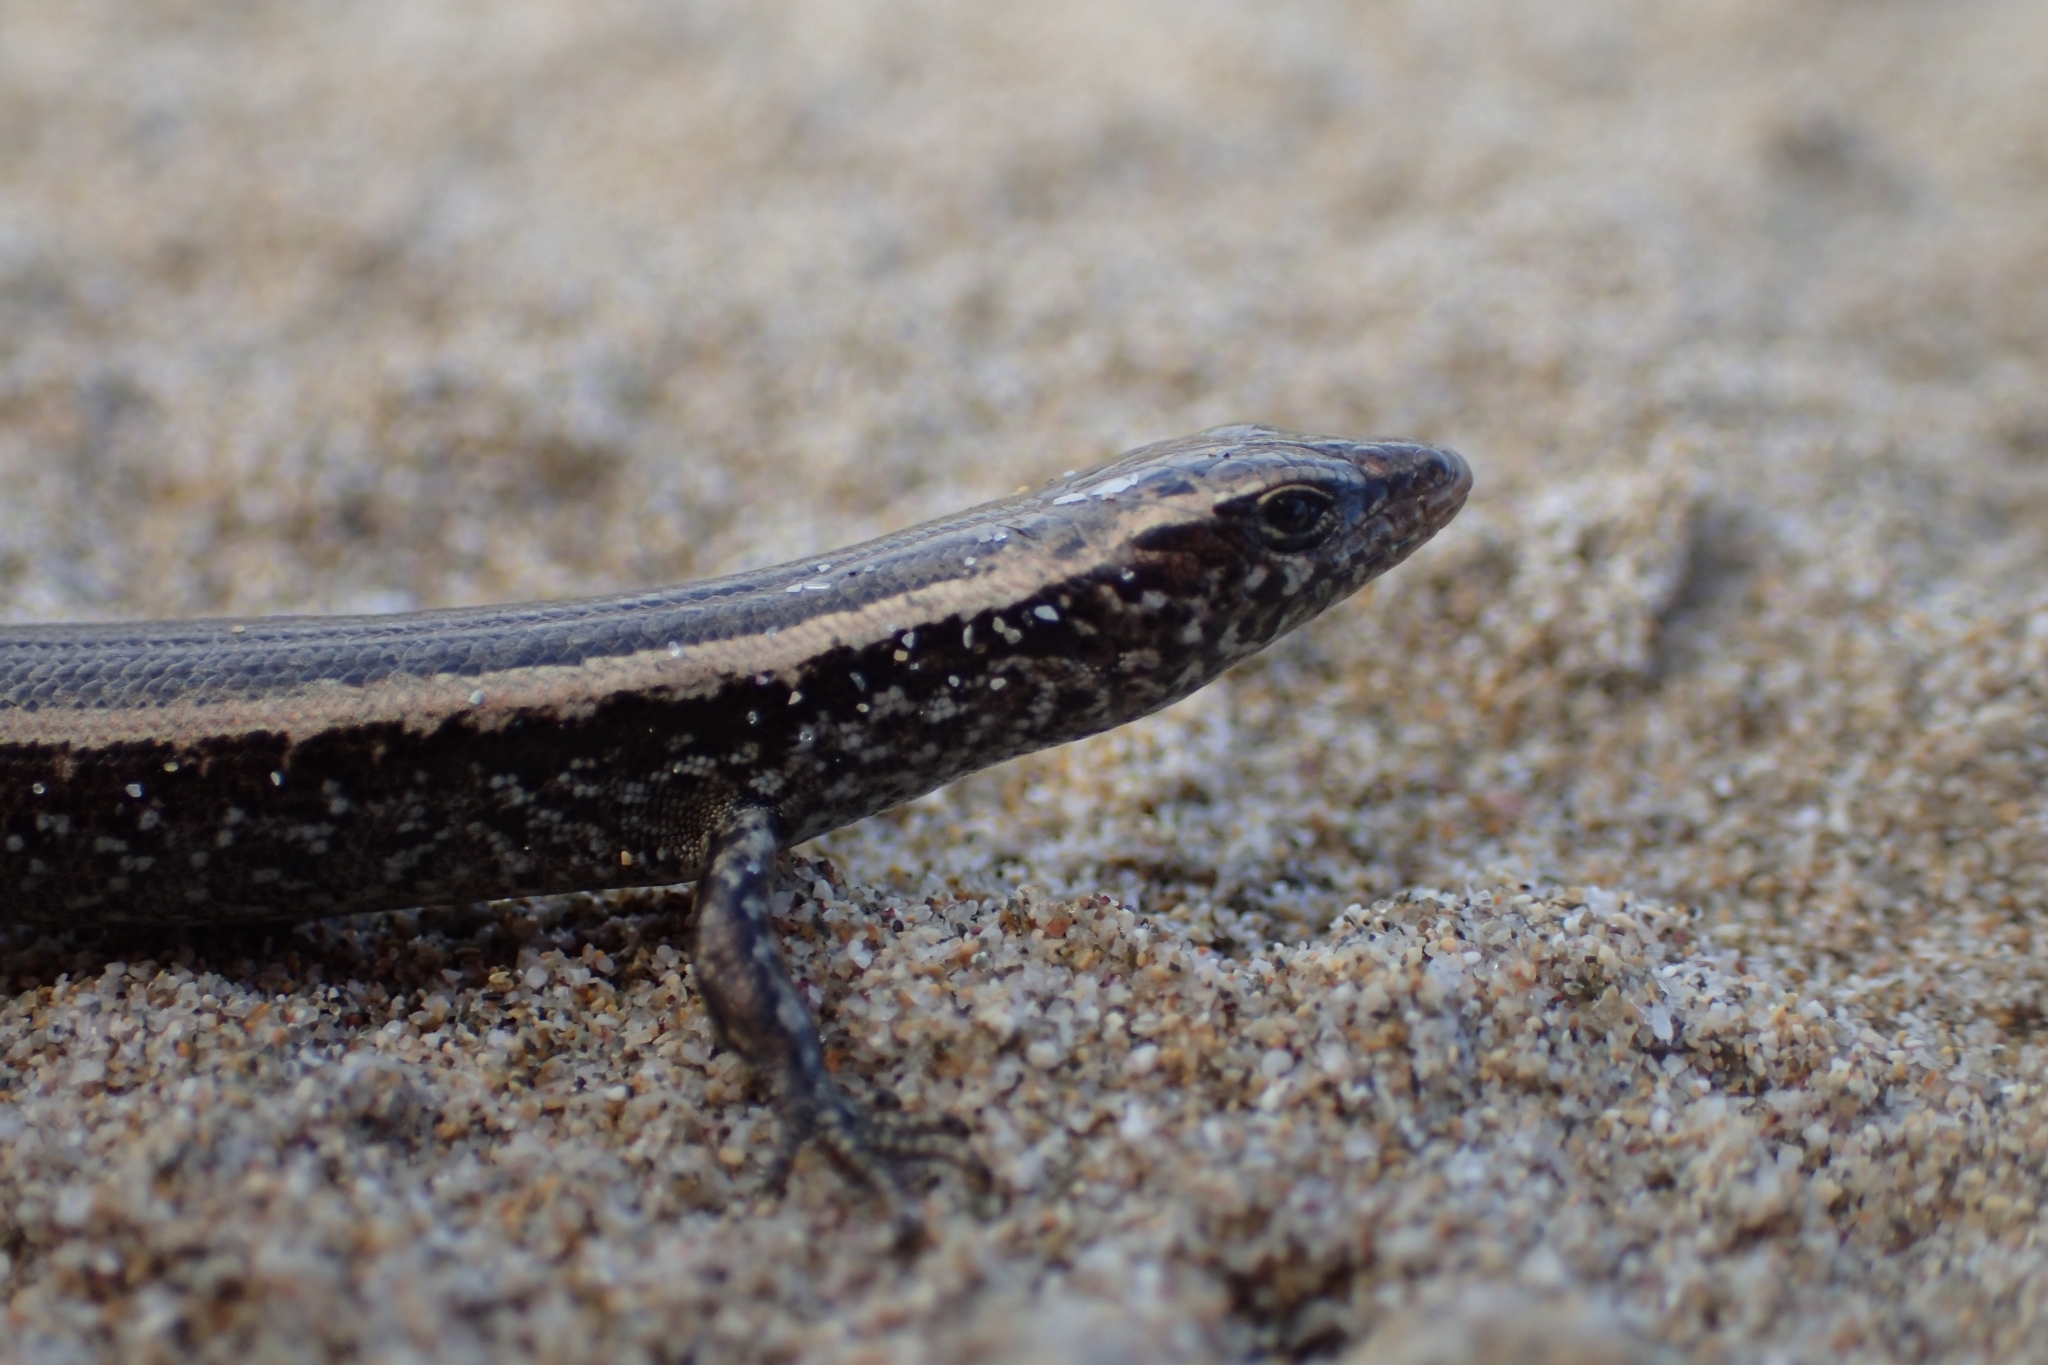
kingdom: Animalia
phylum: Chordata
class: Squamata
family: Scincidae
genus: Oligosoma
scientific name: Oligosoma smithi
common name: Shore skink
